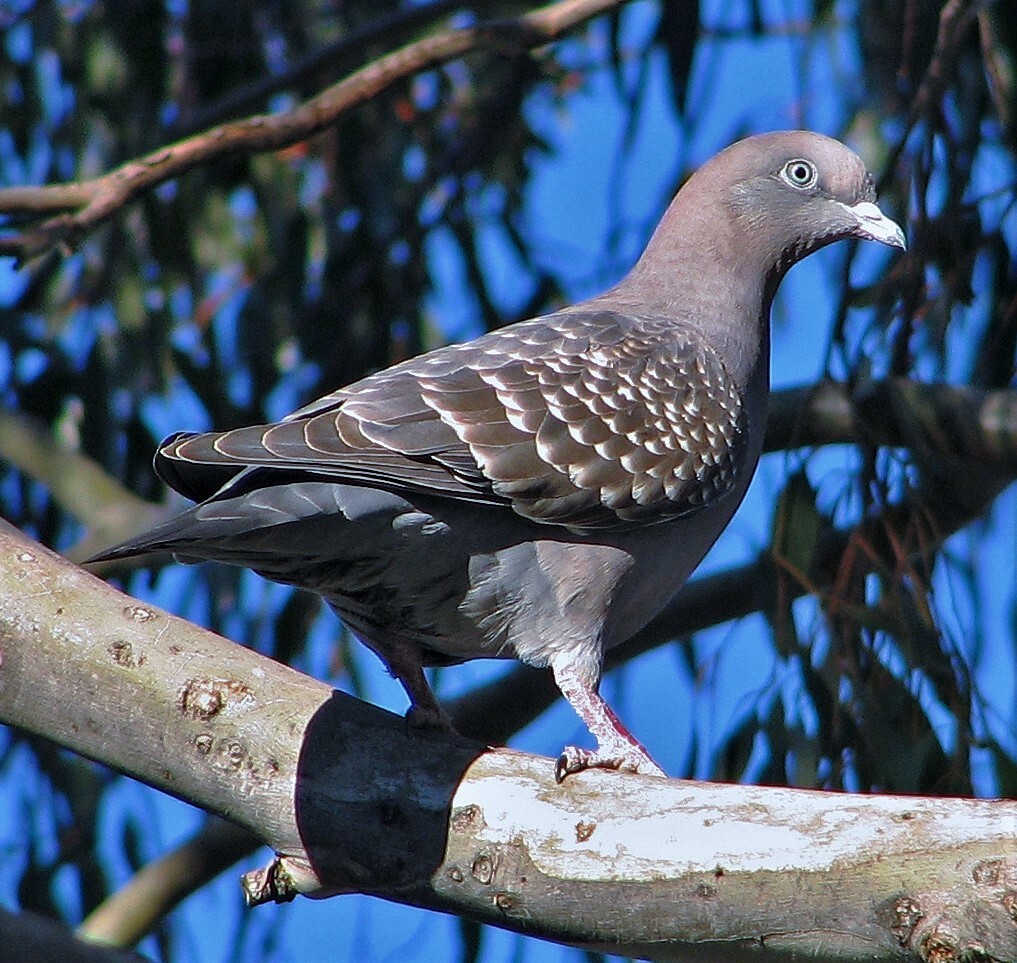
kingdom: Animalia
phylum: Chordata
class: Aves
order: Columbiformes
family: Columbidae
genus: Patagioenas
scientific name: Patagioenas maculosa
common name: Spot-winged pigeon
